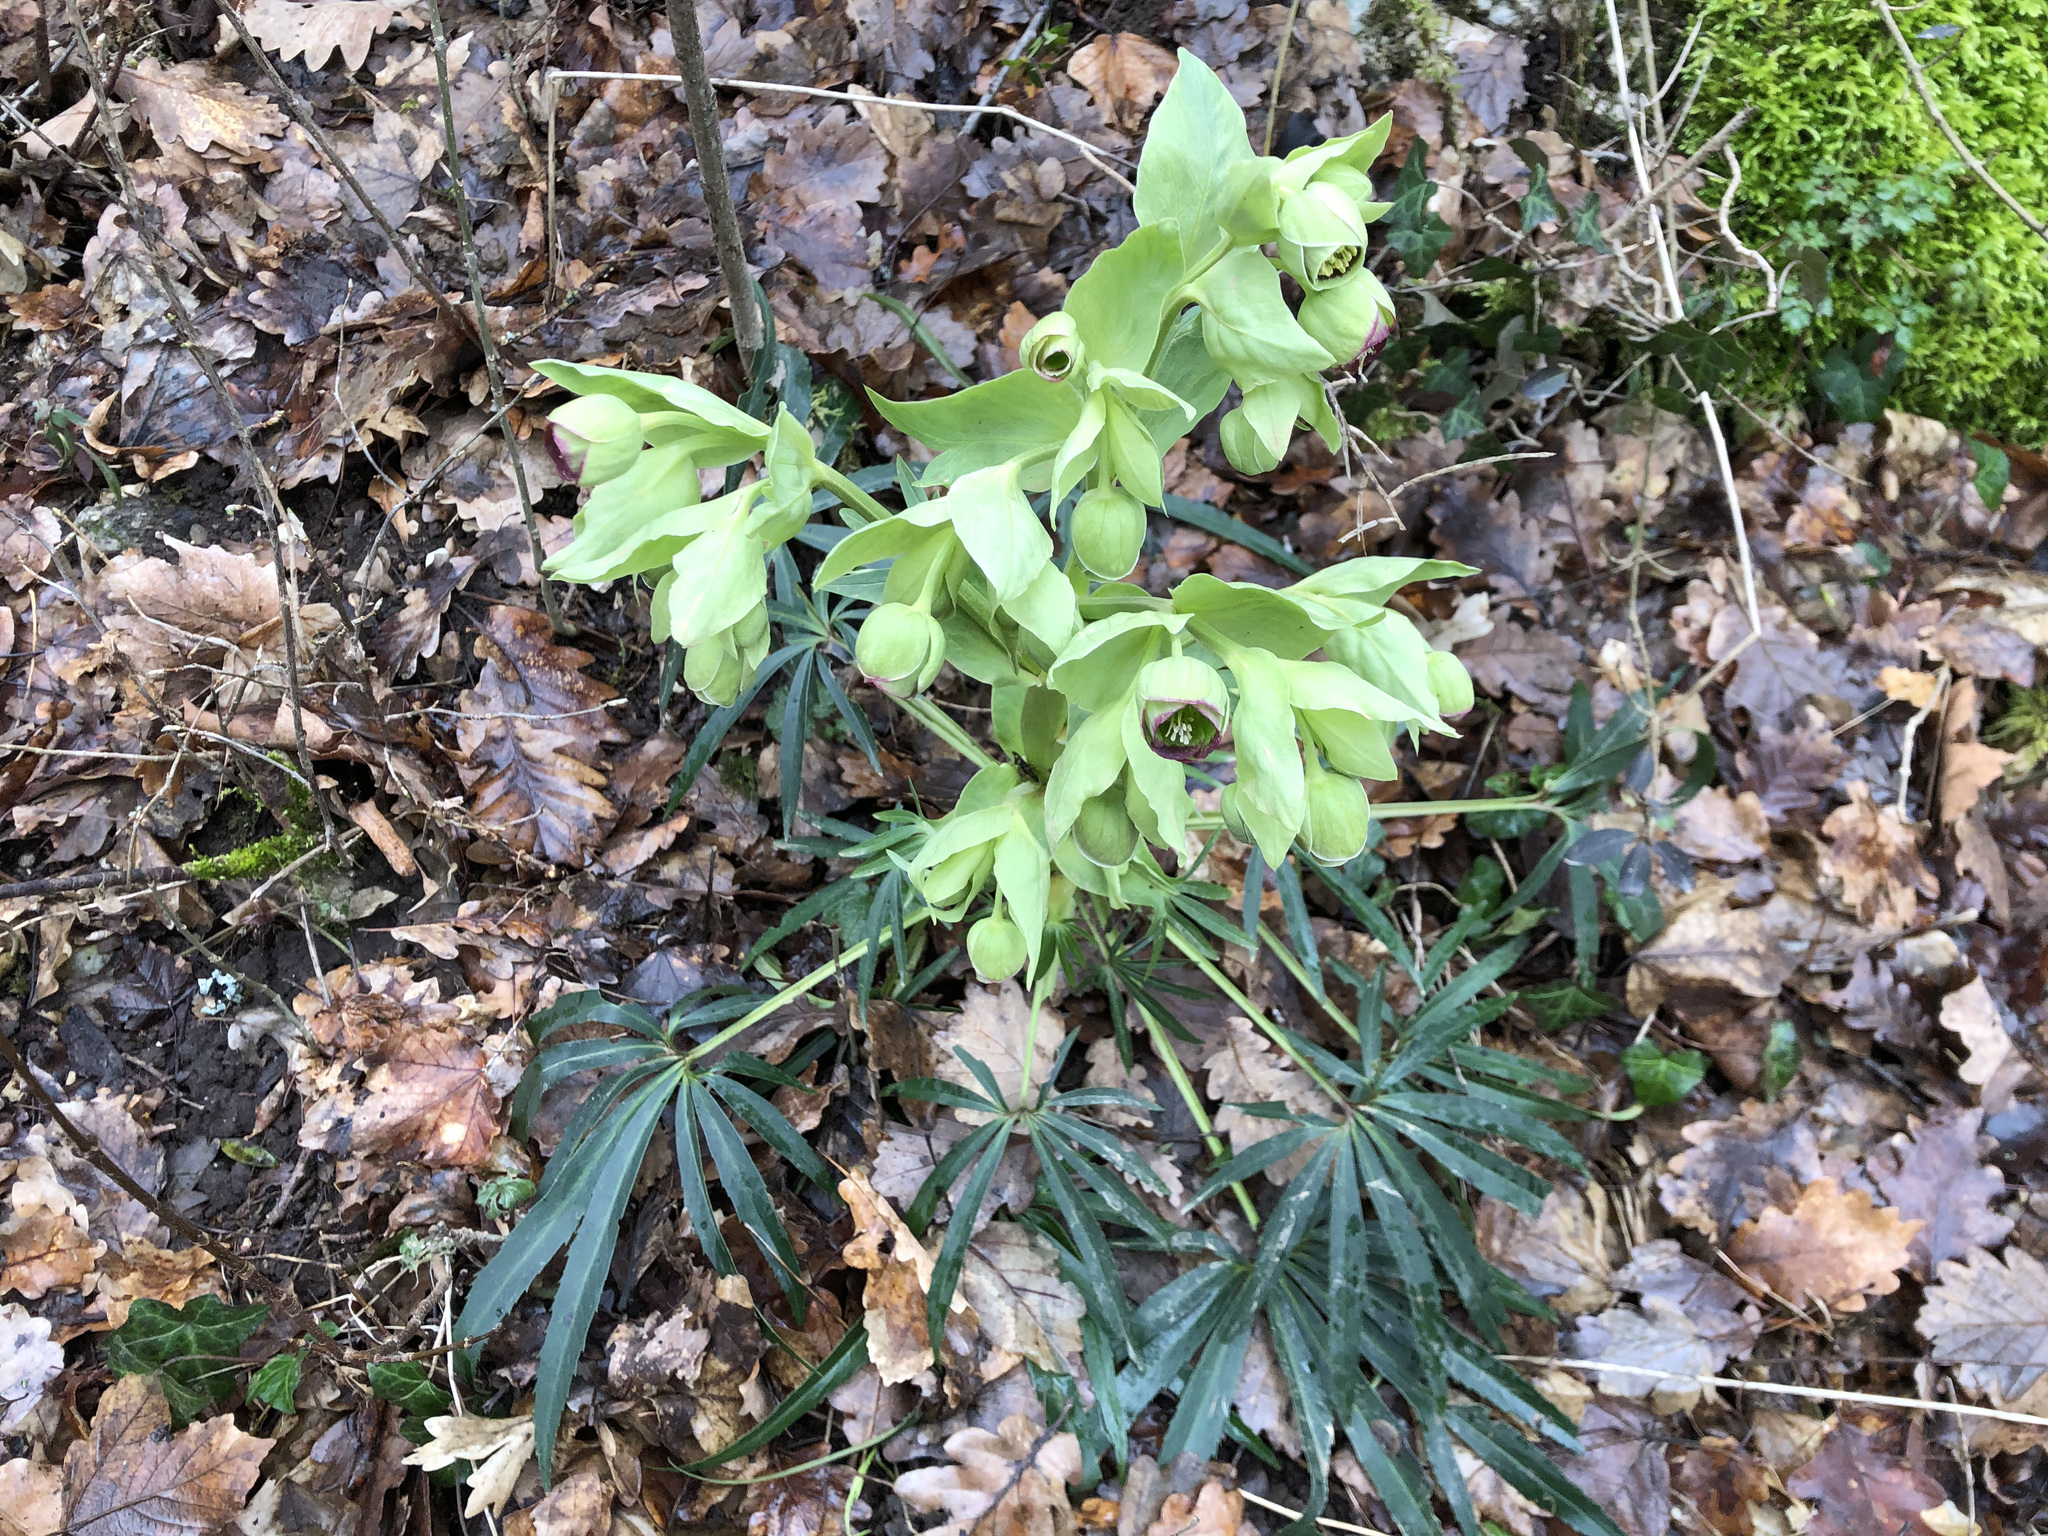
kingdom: Plantae
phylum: Tracheophyta
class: Magnoliopsida
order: Ranunculales
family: Ranunculaceae
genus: Helleborus
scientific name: Helleborus foetidus
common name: Stinking hellebore
